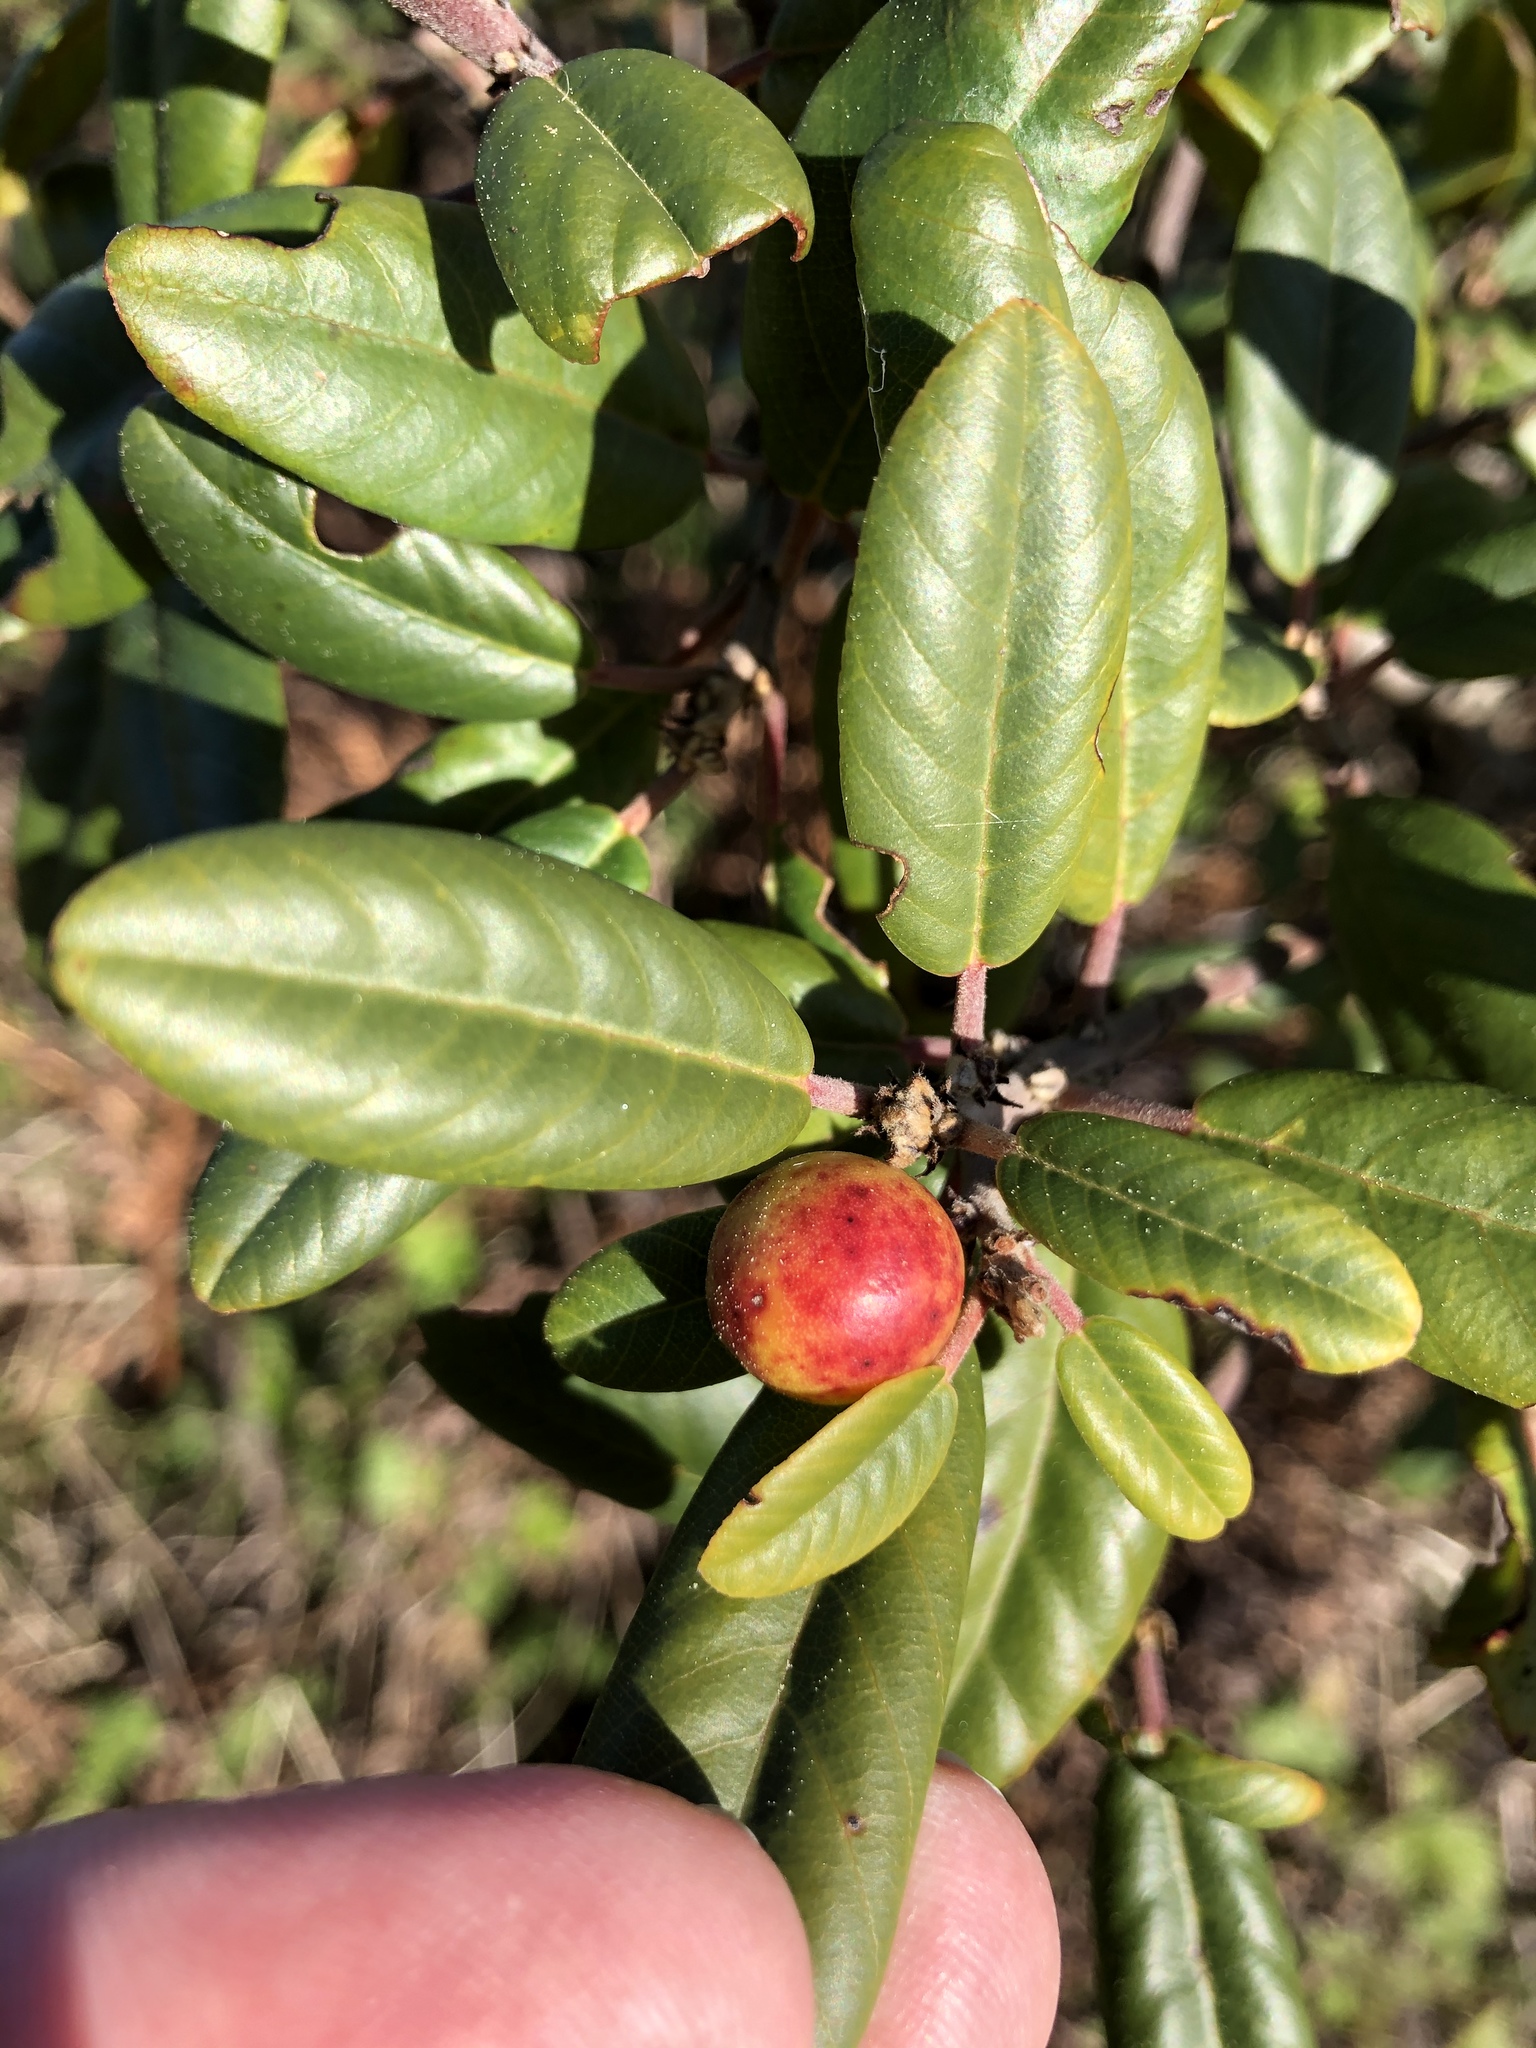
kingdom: Plantae
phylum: Tracheophyta
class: Magnoliopsida
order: Rosales
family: Rhamnaceae
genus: Frangula
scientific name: Frangula californica
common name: California buckthorn
